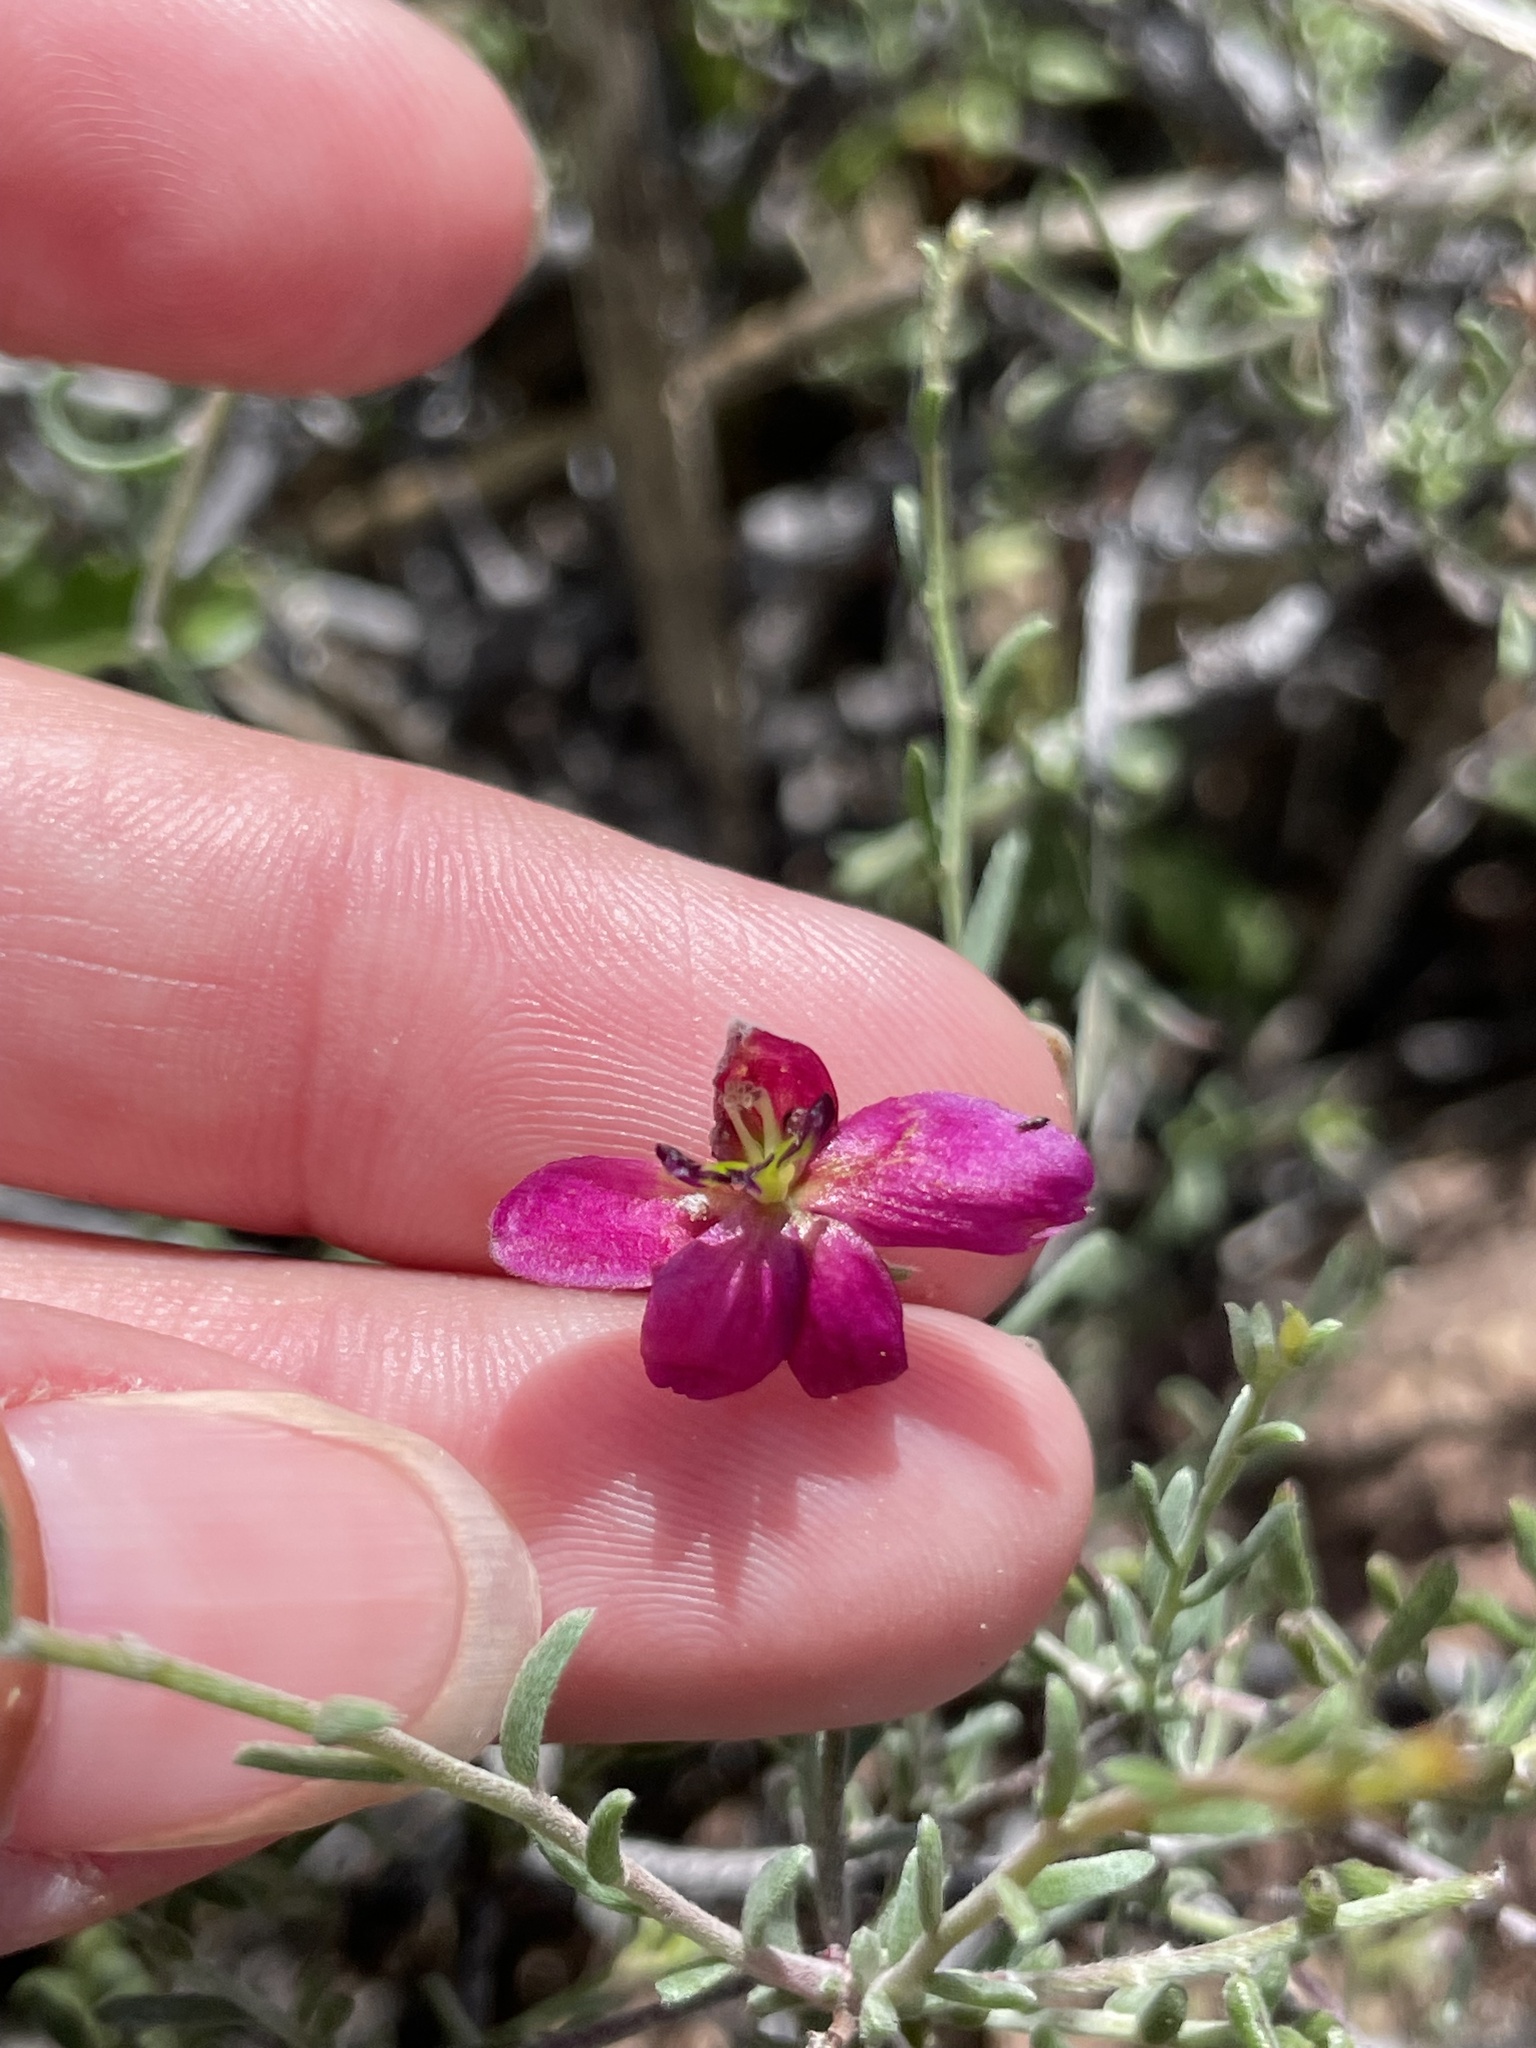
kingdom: Plantae
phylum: Tracheophyta
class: Magnoliopsida
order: Zygophyllales
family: Krameriaceae
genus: Krameria
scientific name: Krameria erecta
